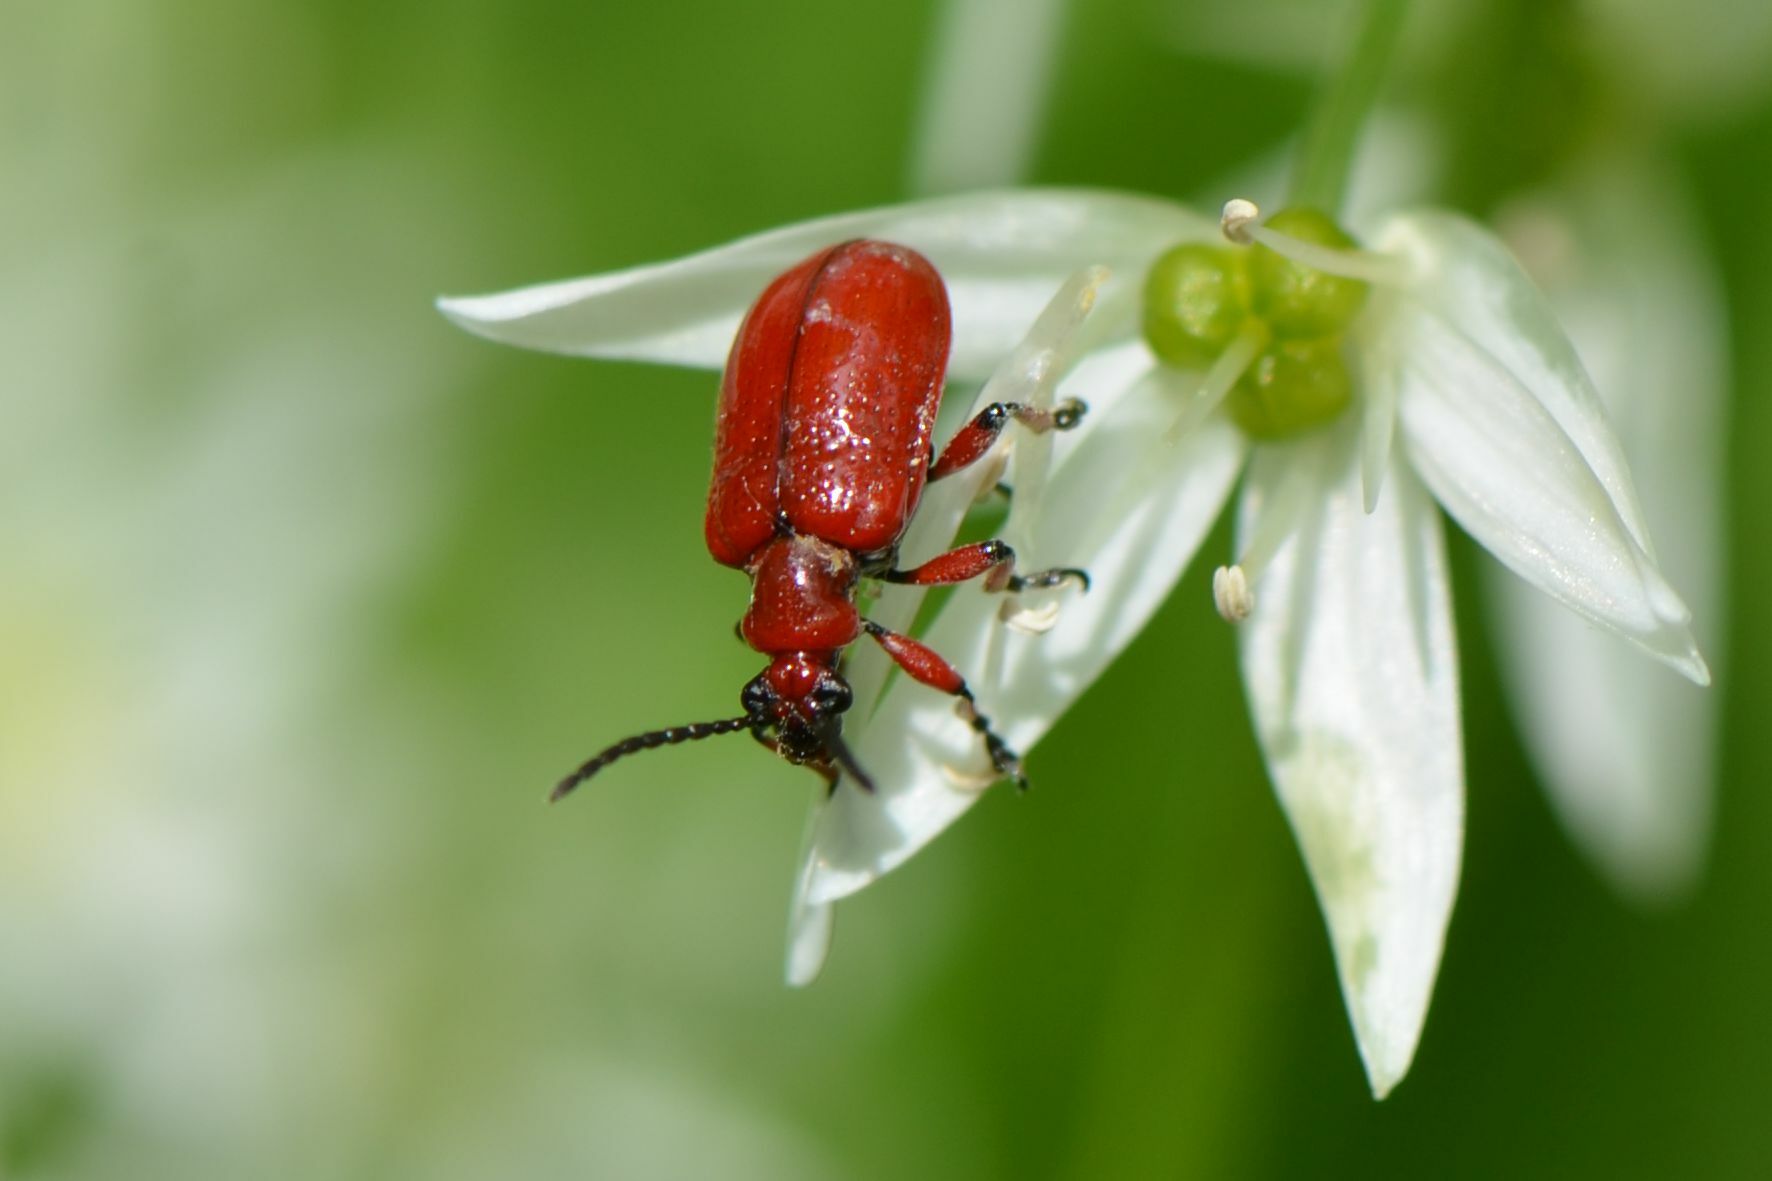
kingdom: Animalia
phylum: Arthropoda
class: Insecta
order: Coleoptera
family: Chrysomelidae
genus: Lilioceris
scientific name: Lilioceris merdigera
